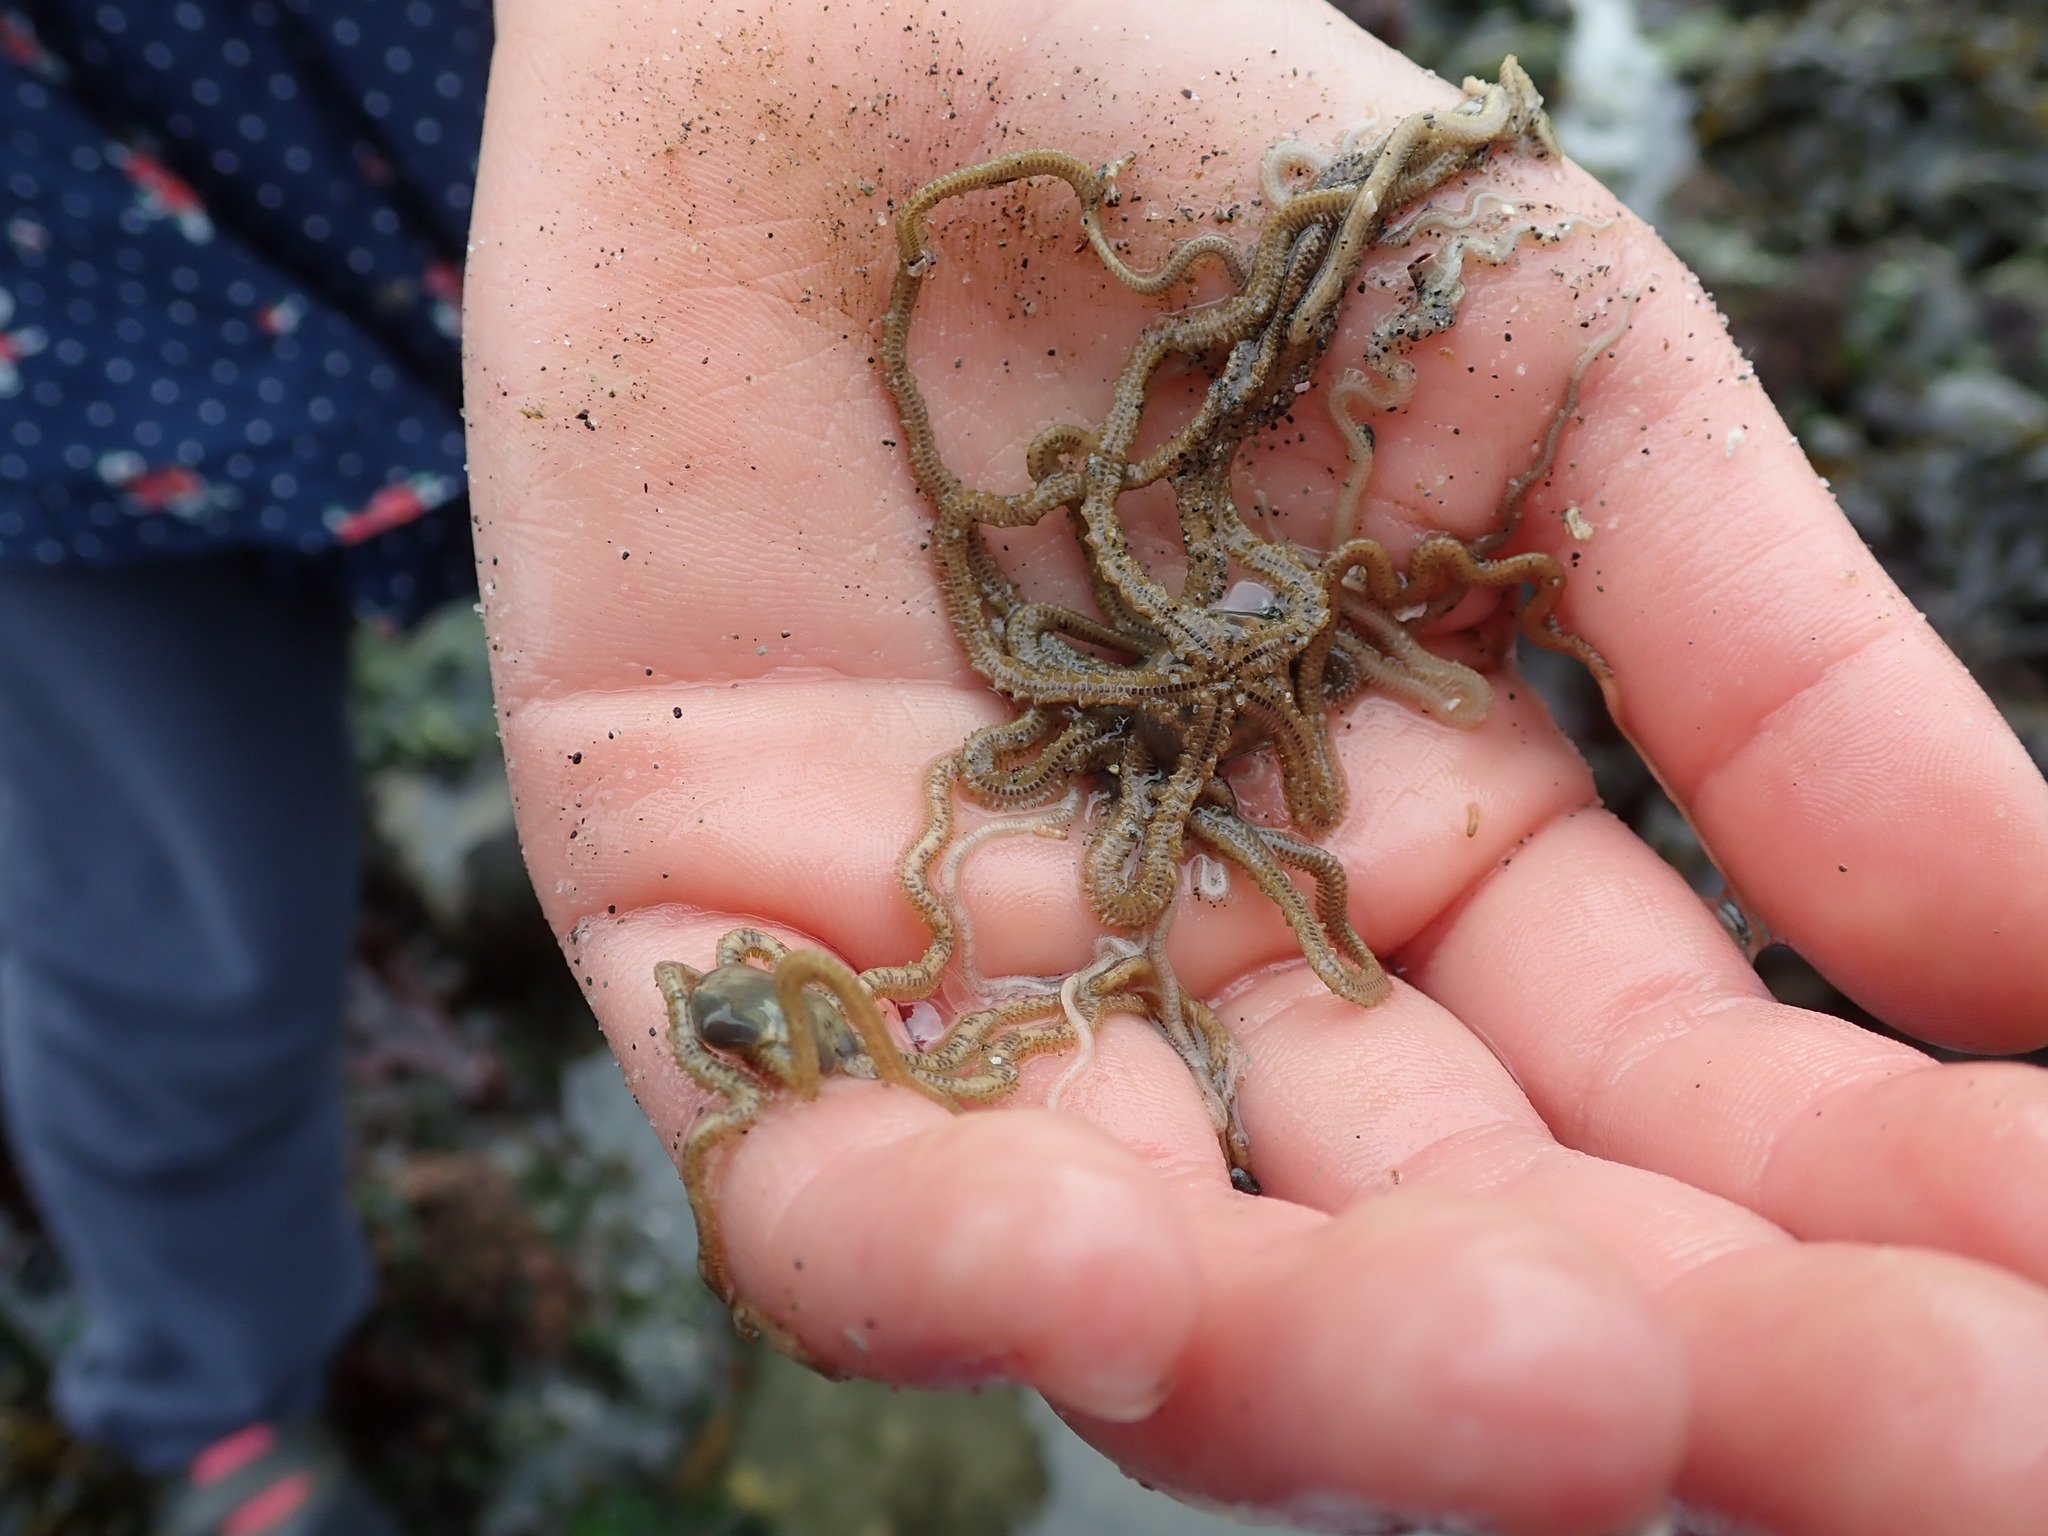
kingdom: Animalia
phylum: Echinodermata
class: Ophiuroidea
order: Amphilepidida
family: Amphiuridae
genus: Amphiodia
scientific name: Amphiodia occidentalis
